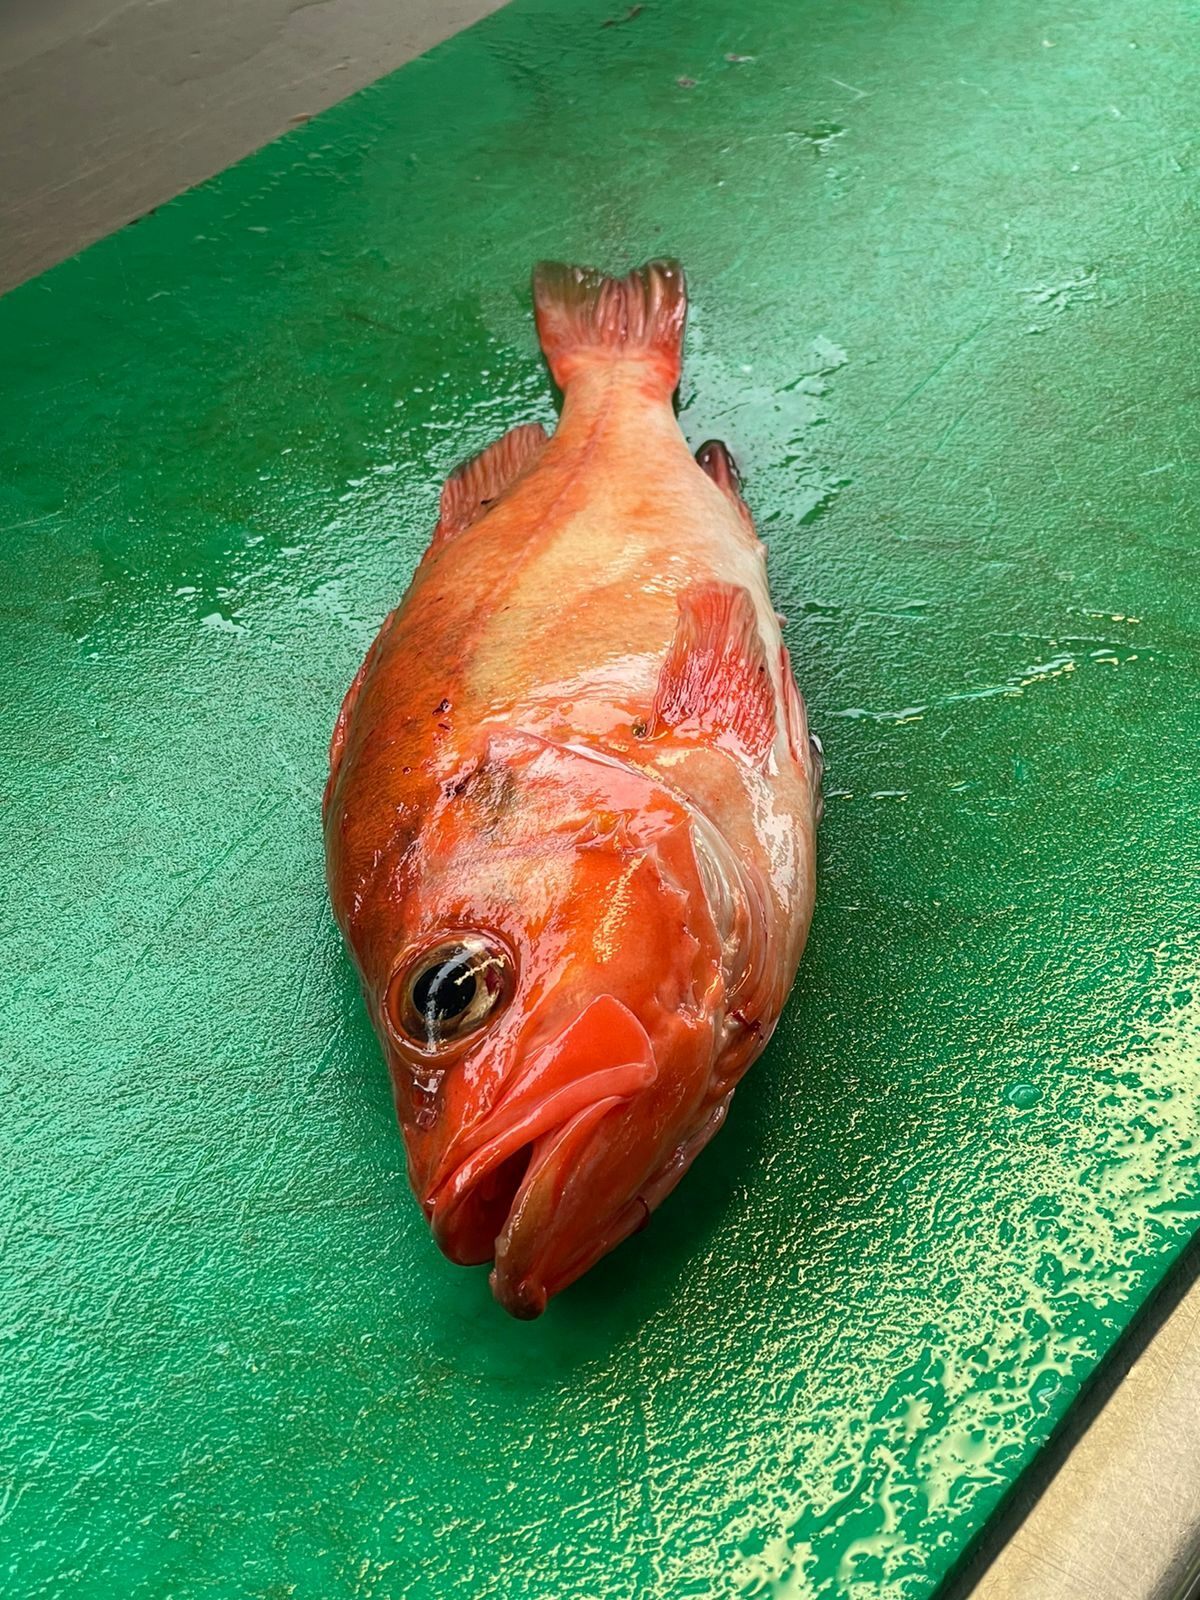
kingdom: Animalia
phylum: Chordata
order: Scorpaeniformes
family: Sebastidae
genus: Sebastes
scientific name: Sebastes norvegicus
